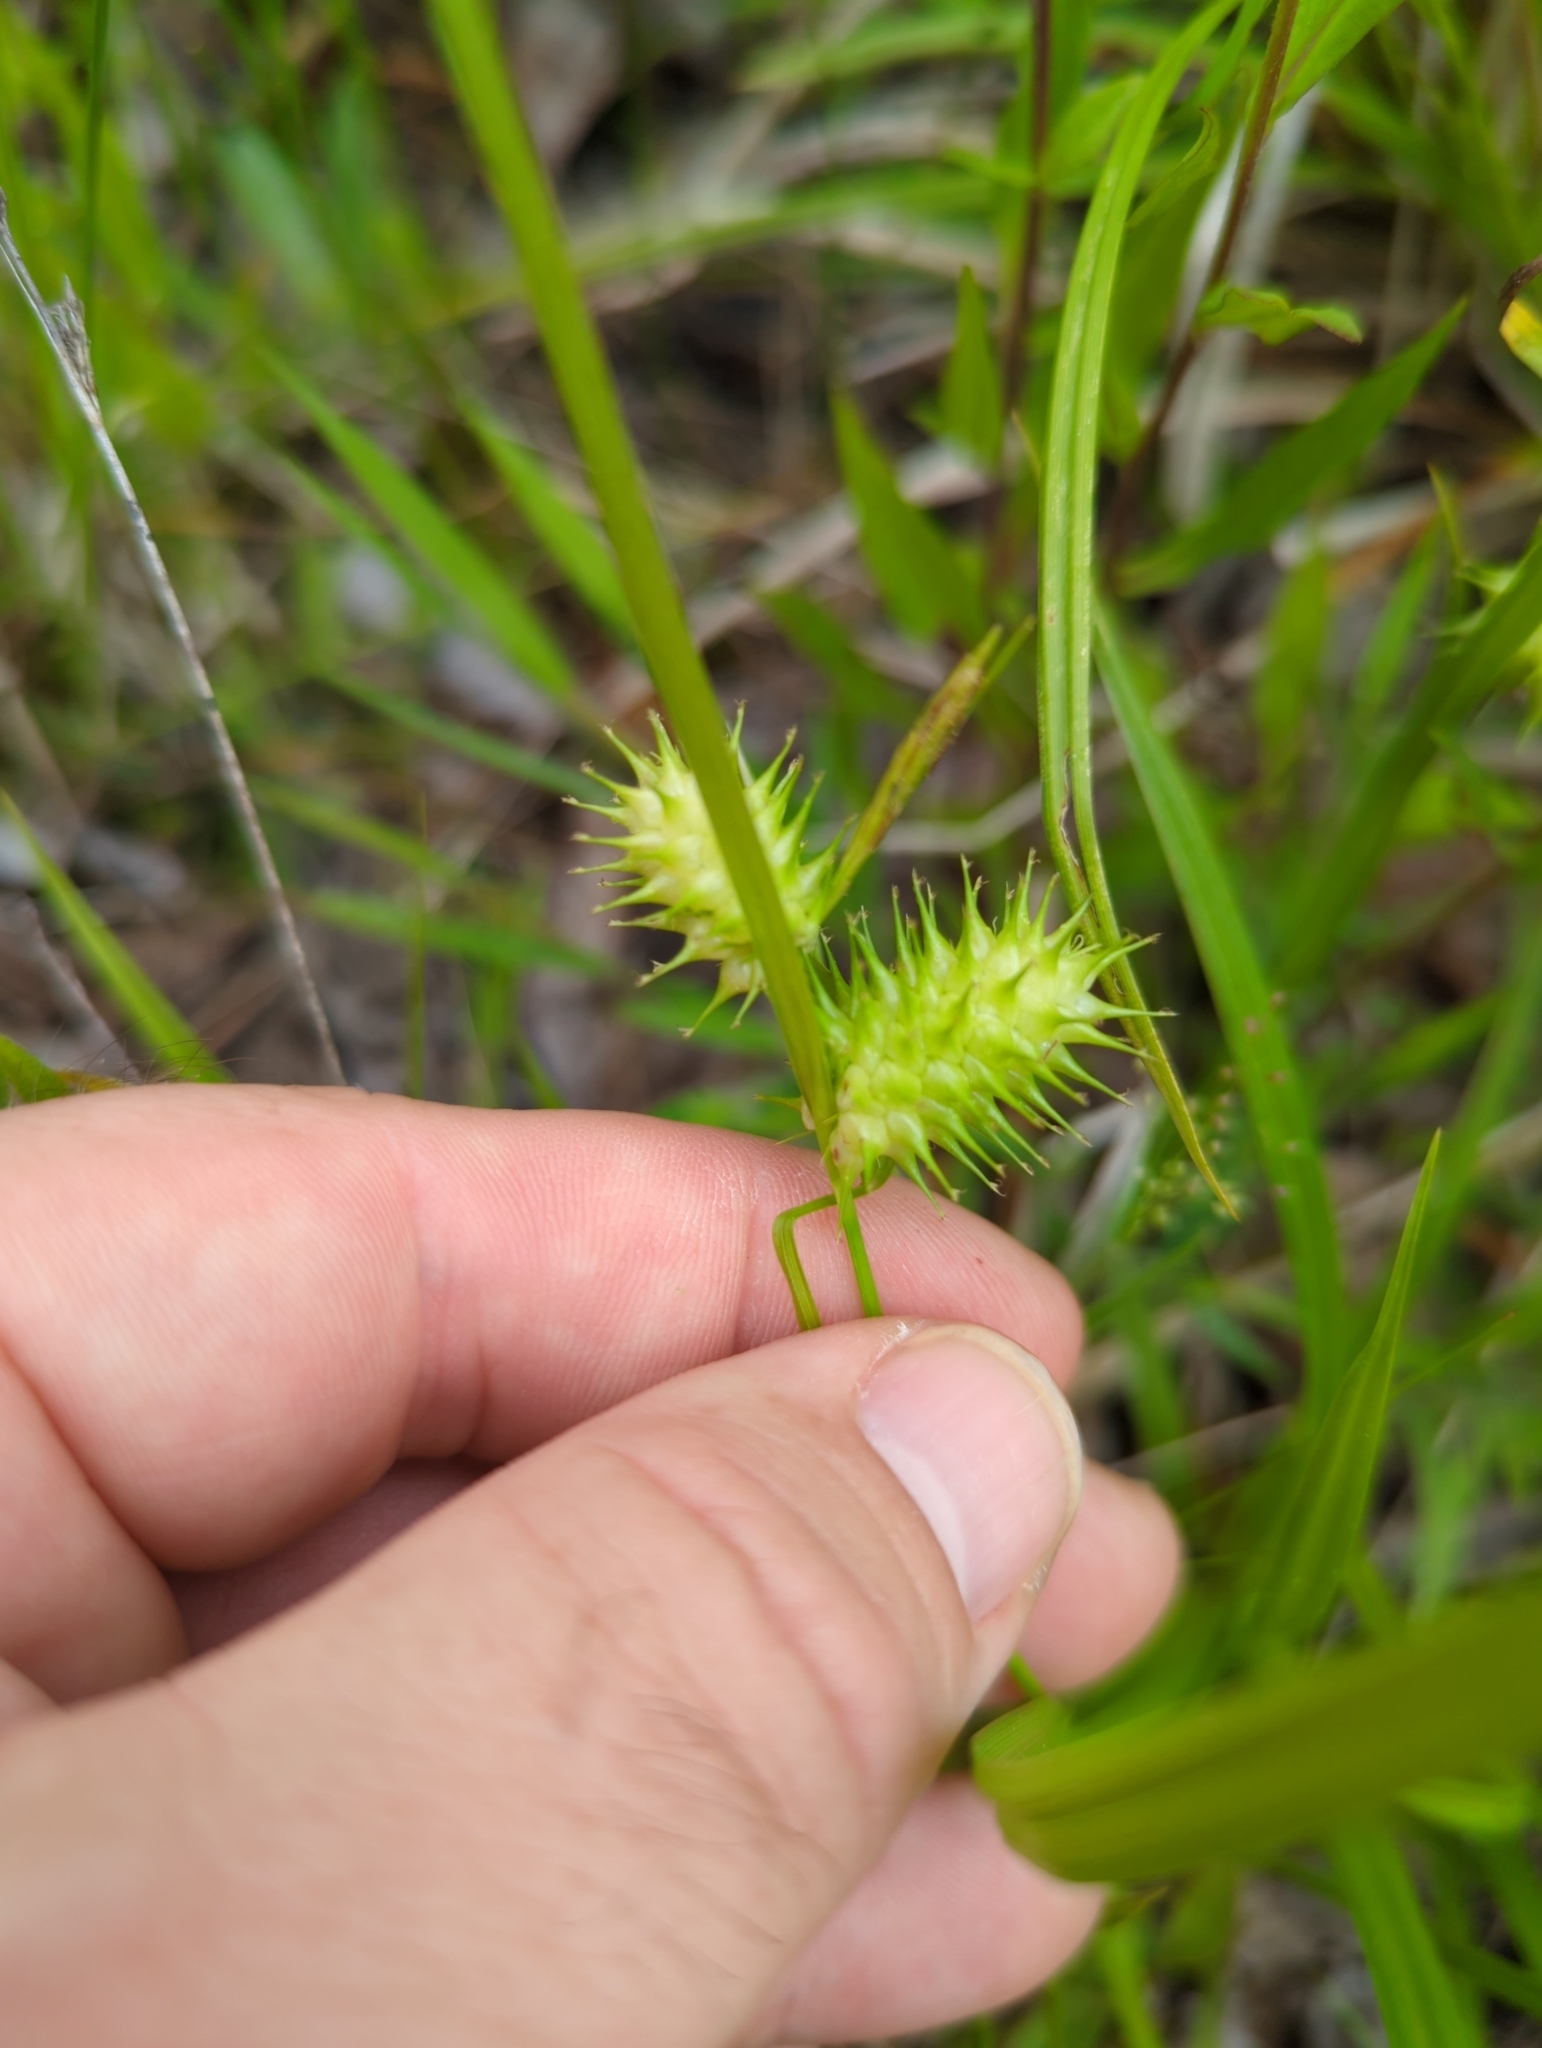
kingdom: Plantae
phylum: Tracheophyta
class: Liliopsida
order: Poales
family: Cyperaceae
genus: Carex
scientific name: Carex lurida
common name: Sallow sedge
